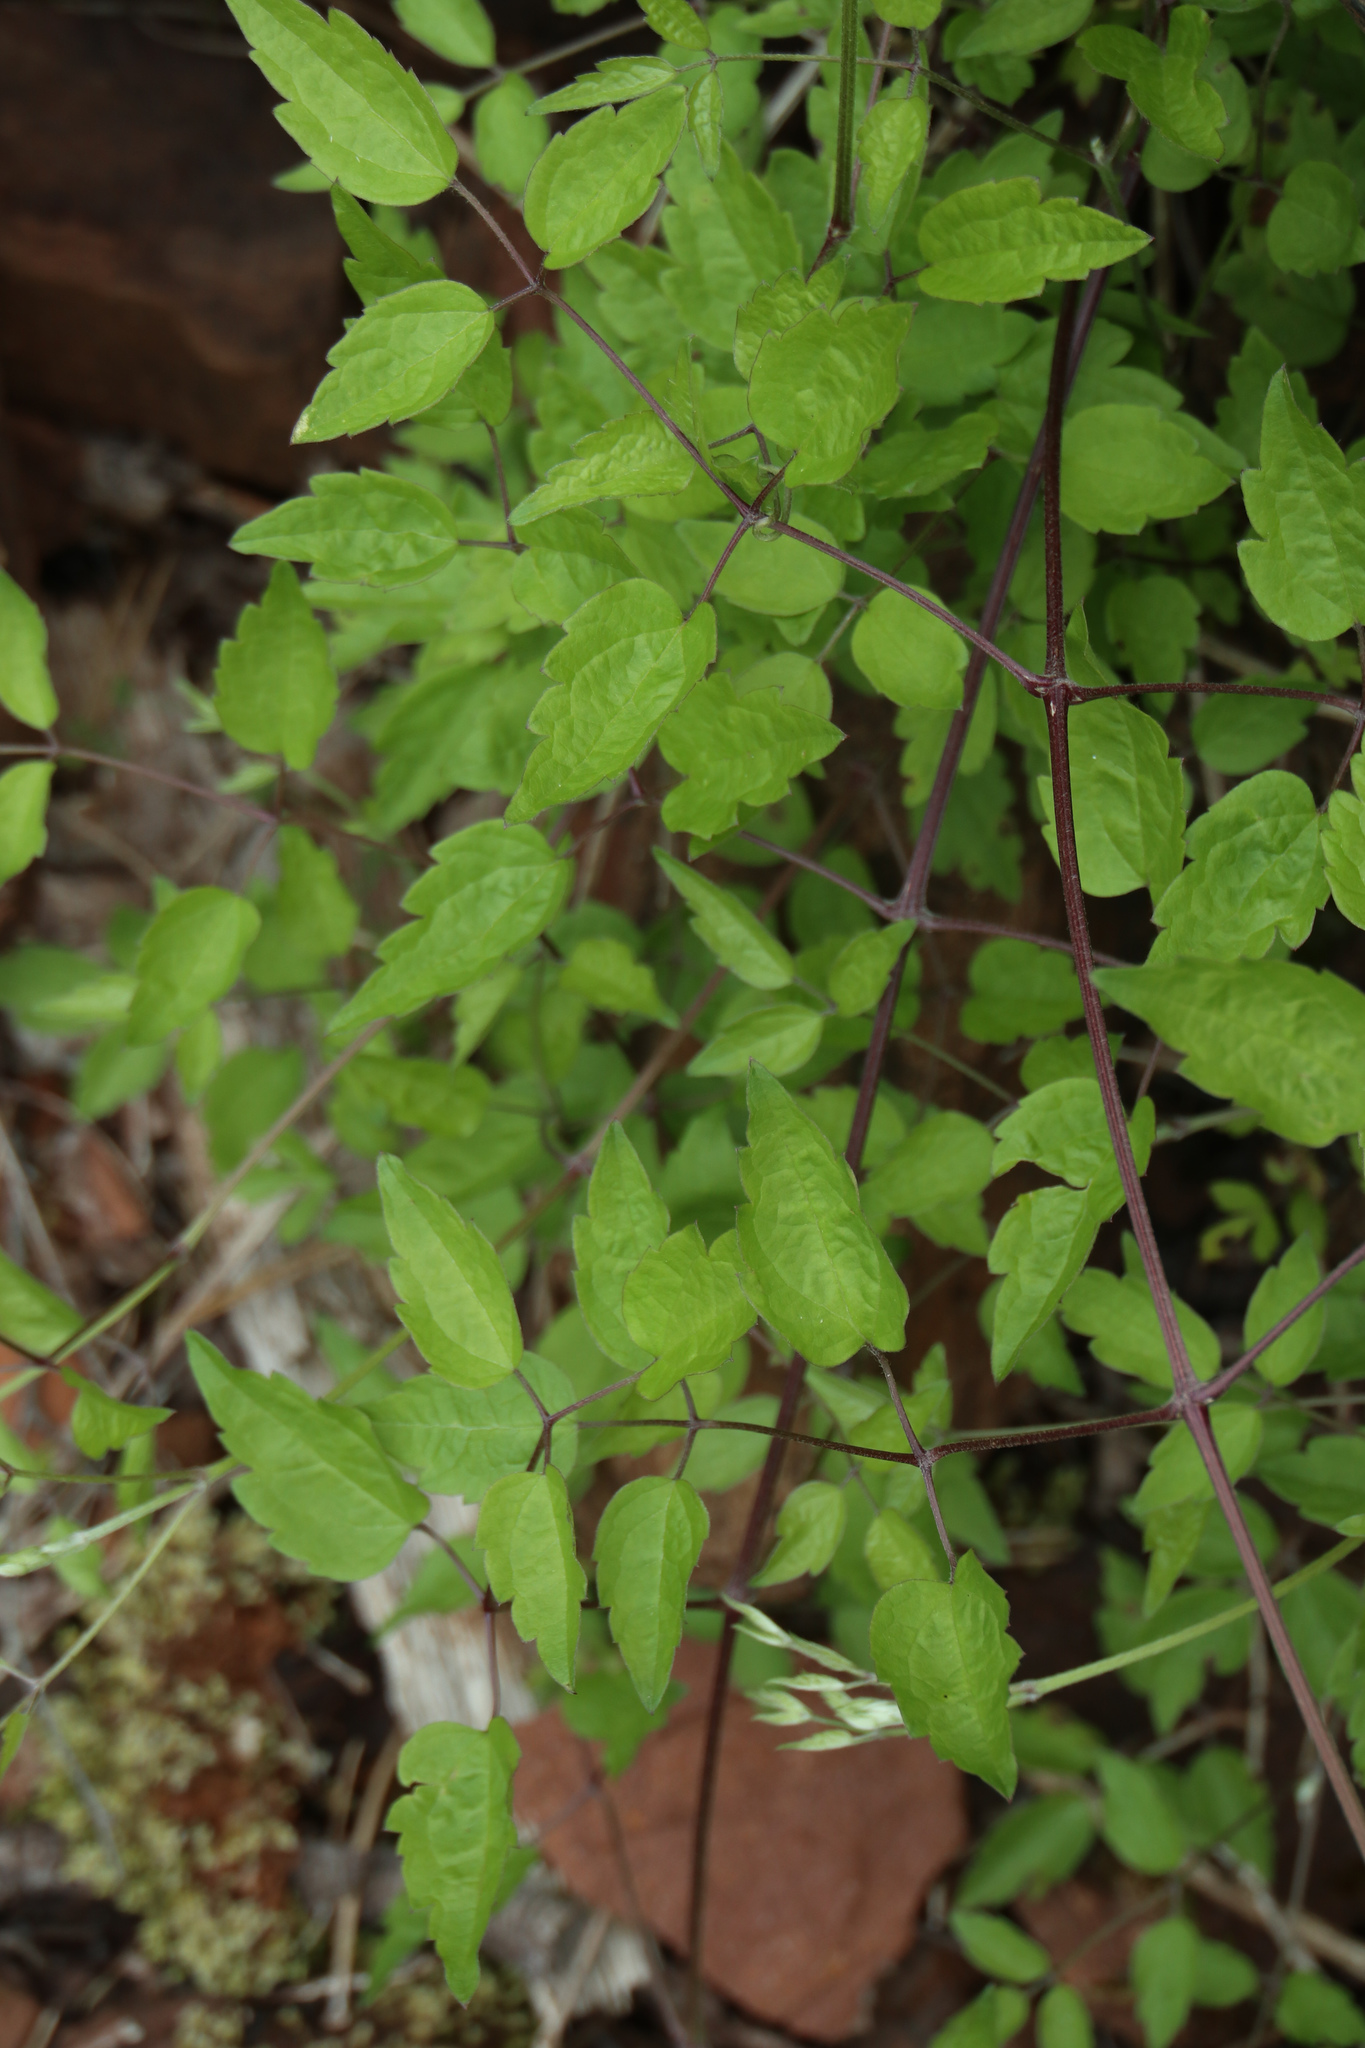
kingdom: Plantae
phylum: Tracheophyta
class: Magnoliopsida
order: Ranunculales
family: Ranunculaceae
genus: Clematis
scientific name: Clematis vitalba
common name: Evergreen clematis
